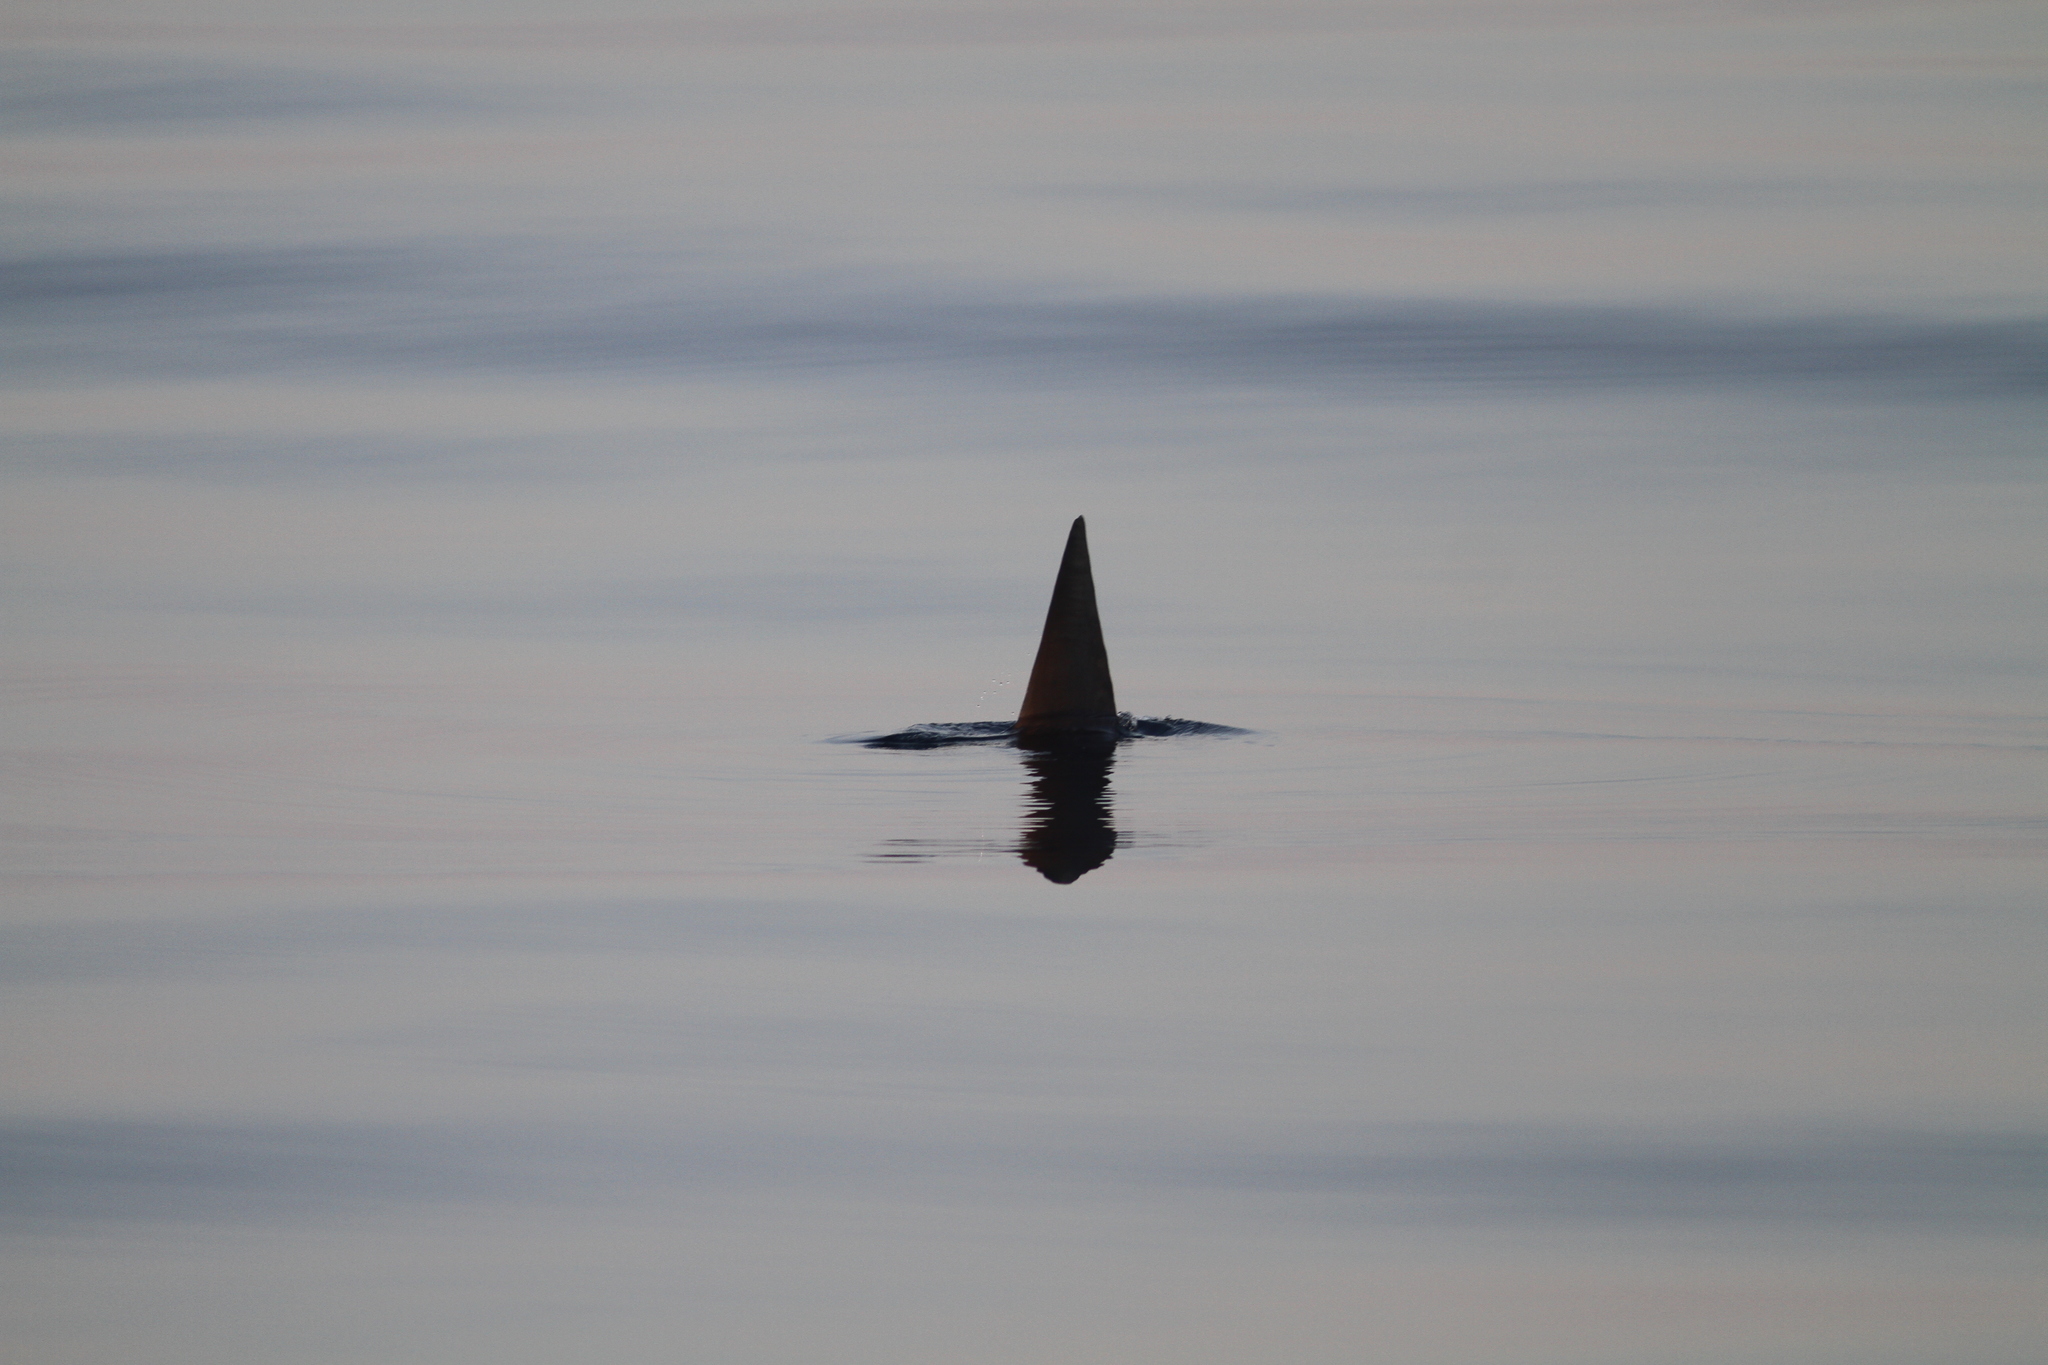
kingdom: Animalia
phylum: Chordata
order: Tetraodontiformes
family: Molidae
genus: Mola
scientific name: Mola mola
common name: Ocean sunfish
